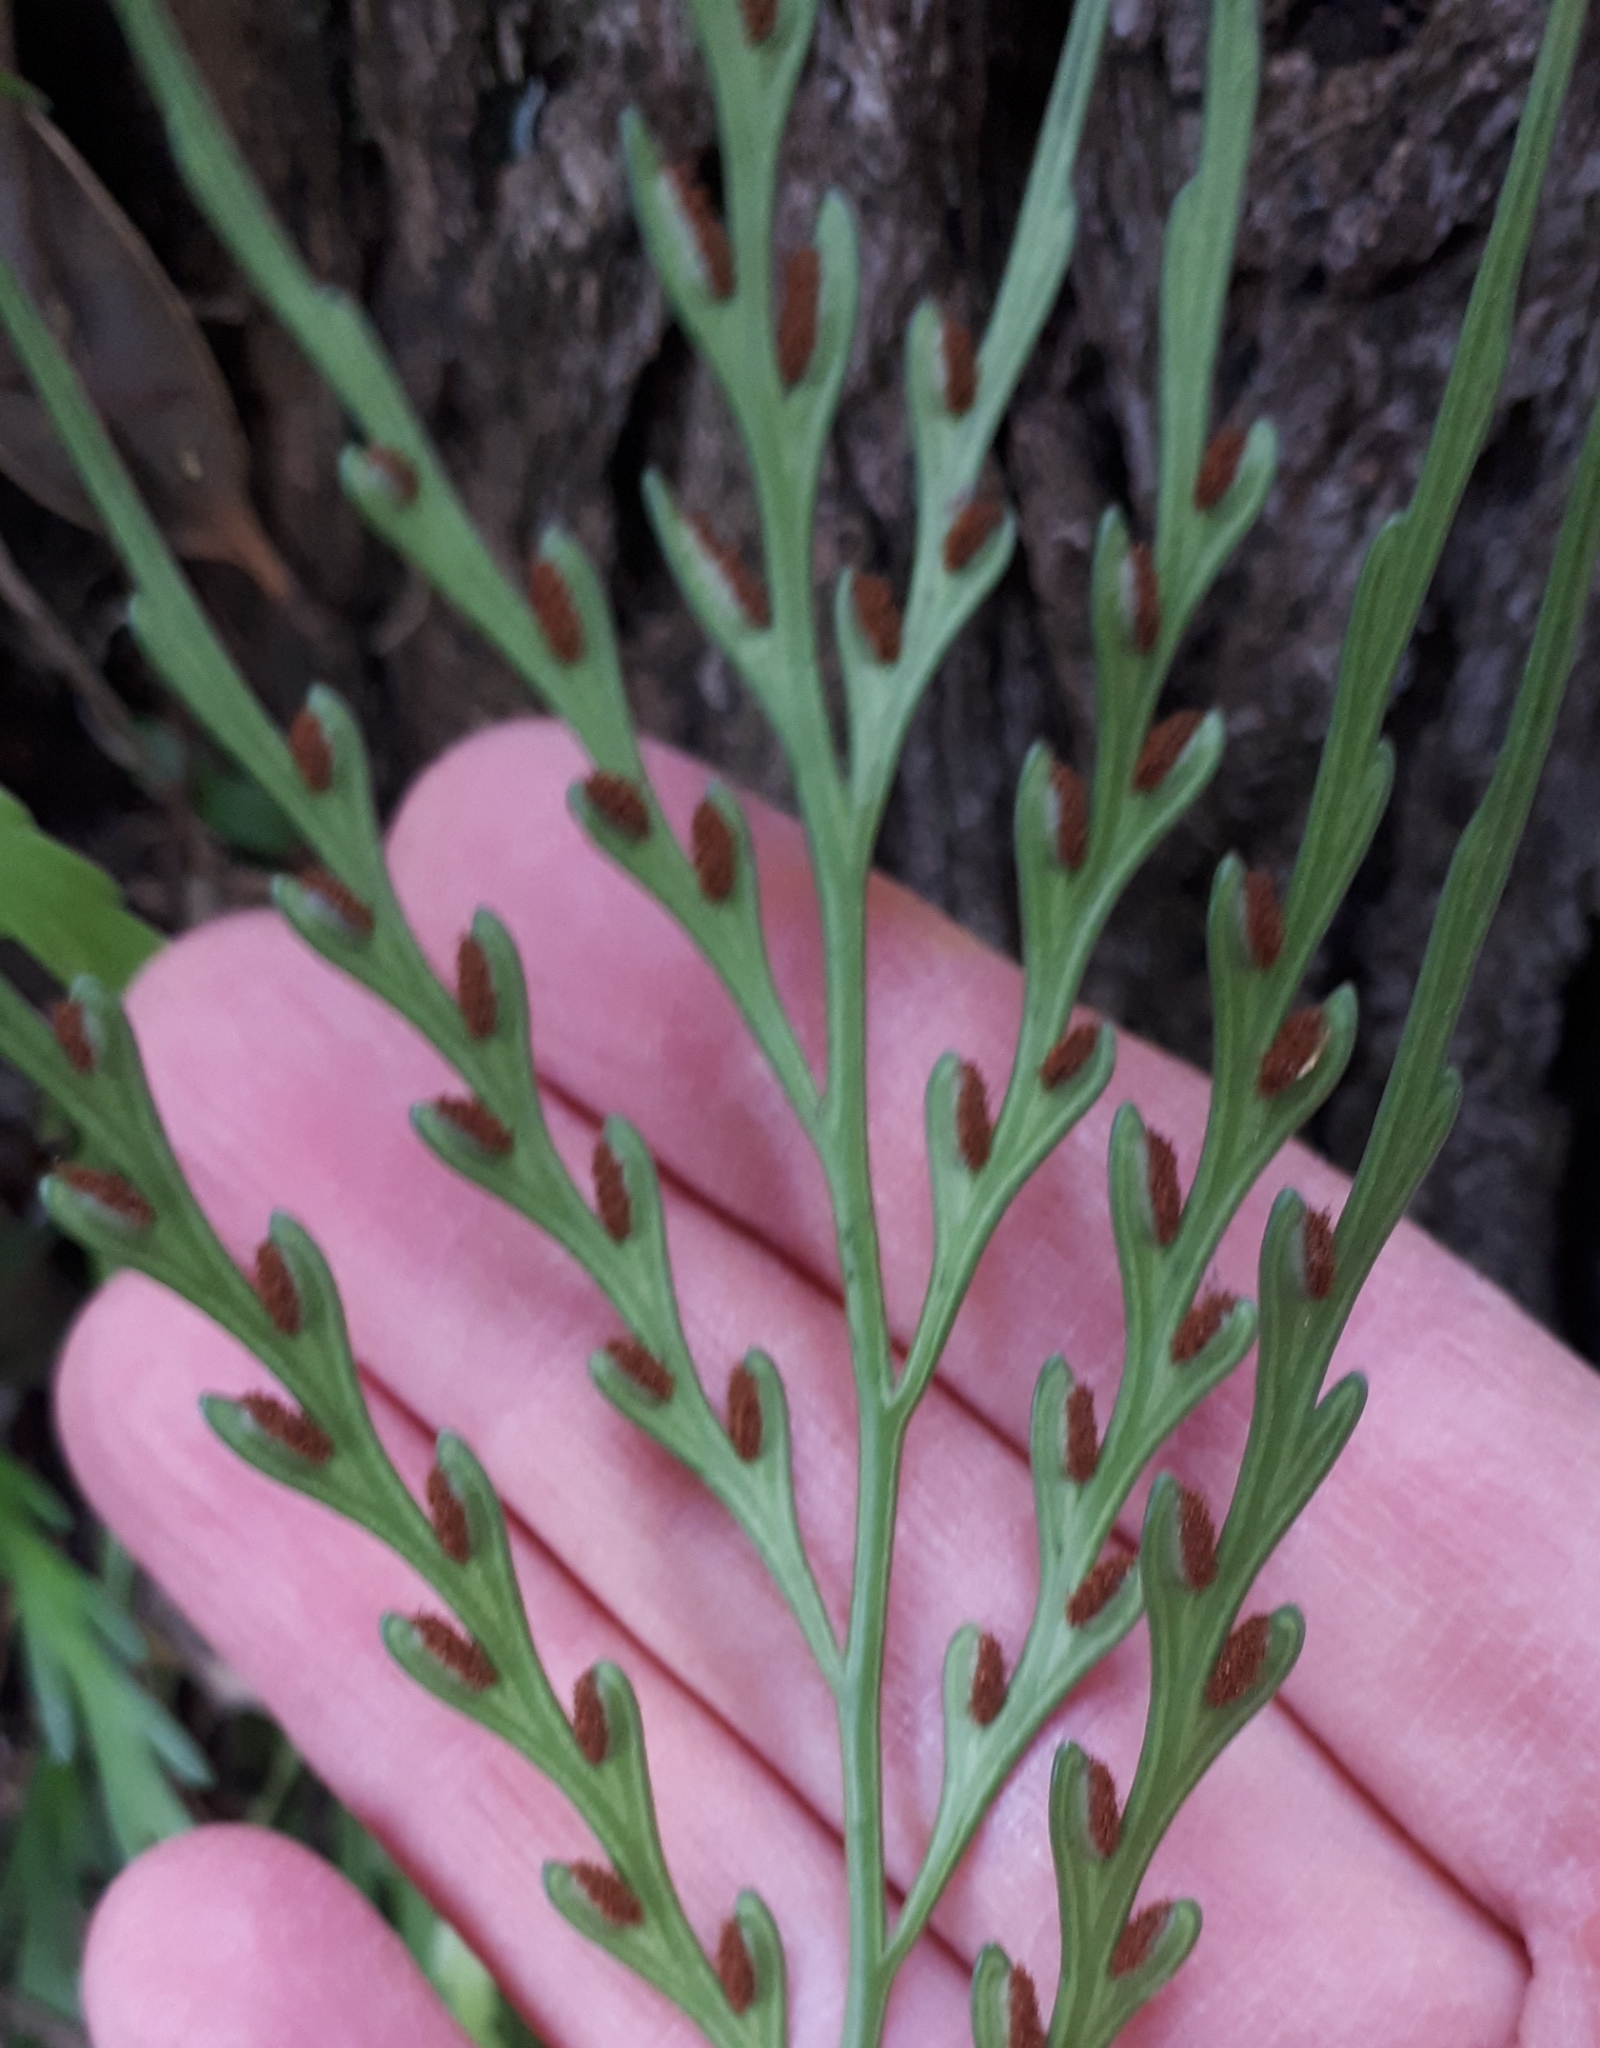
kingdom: Plantae
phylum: Tracheophyta
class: Polypodiopsida
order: Polypodiales
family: Aspleniaceae
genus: Asplenium
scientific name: Asplenium flaccidum
